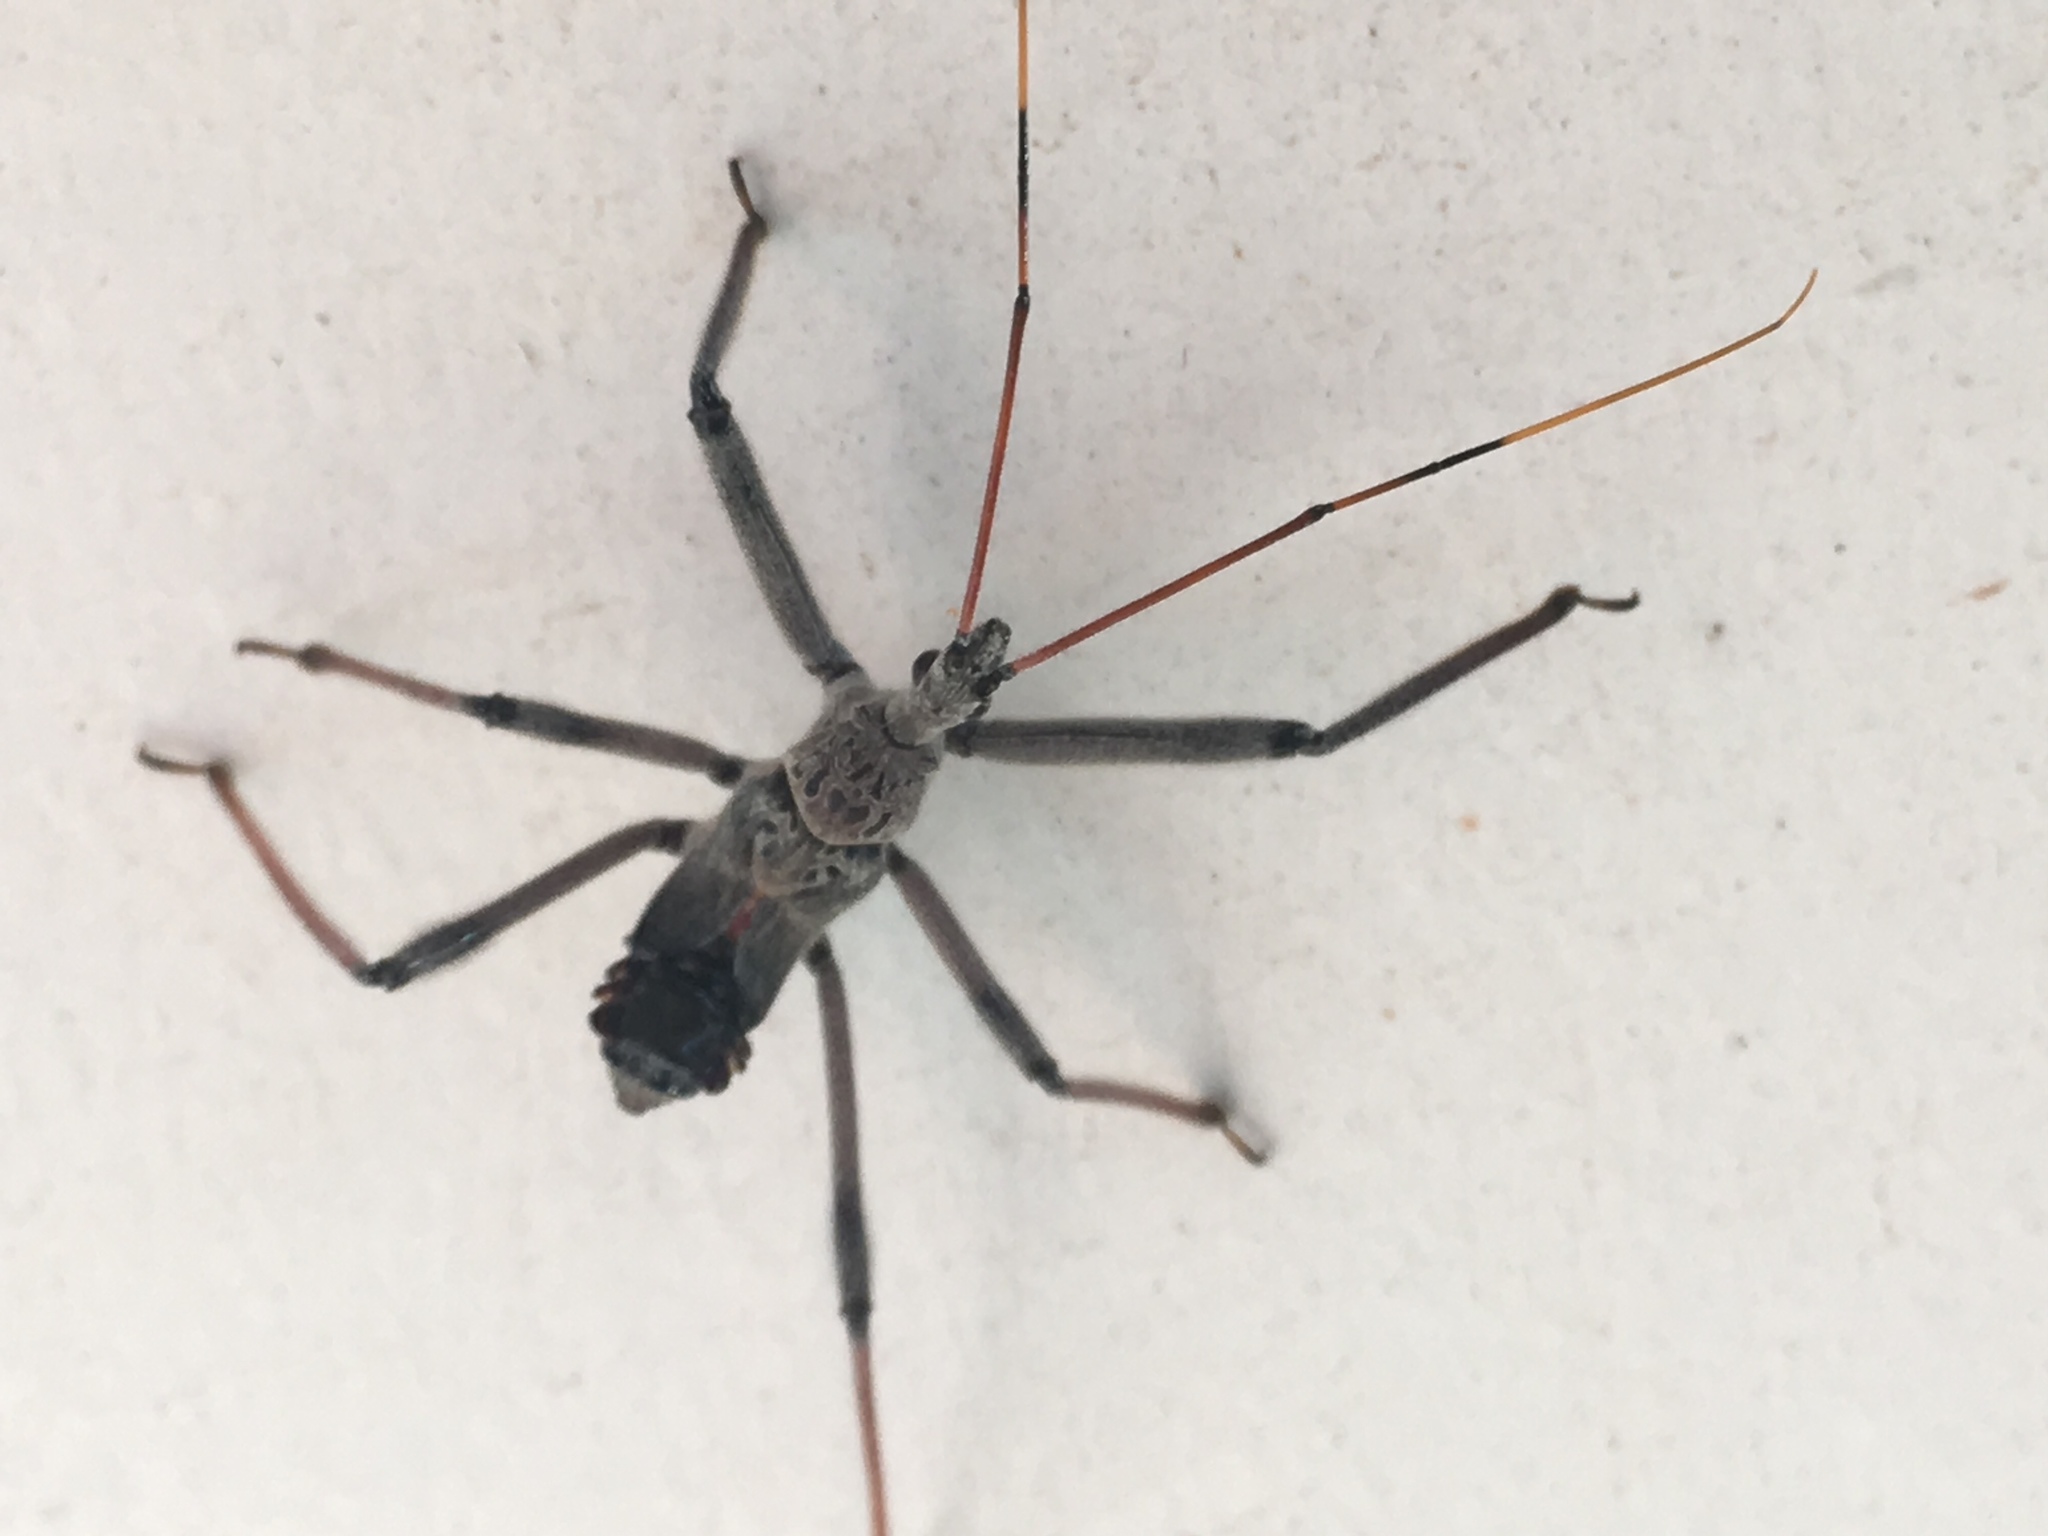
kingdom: Animalia
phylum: Arthropoda
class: Insecta
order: Hemiptera
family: Reduviidae
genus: Arilus
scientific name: Arilus cristatus
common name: North american wheel bug
